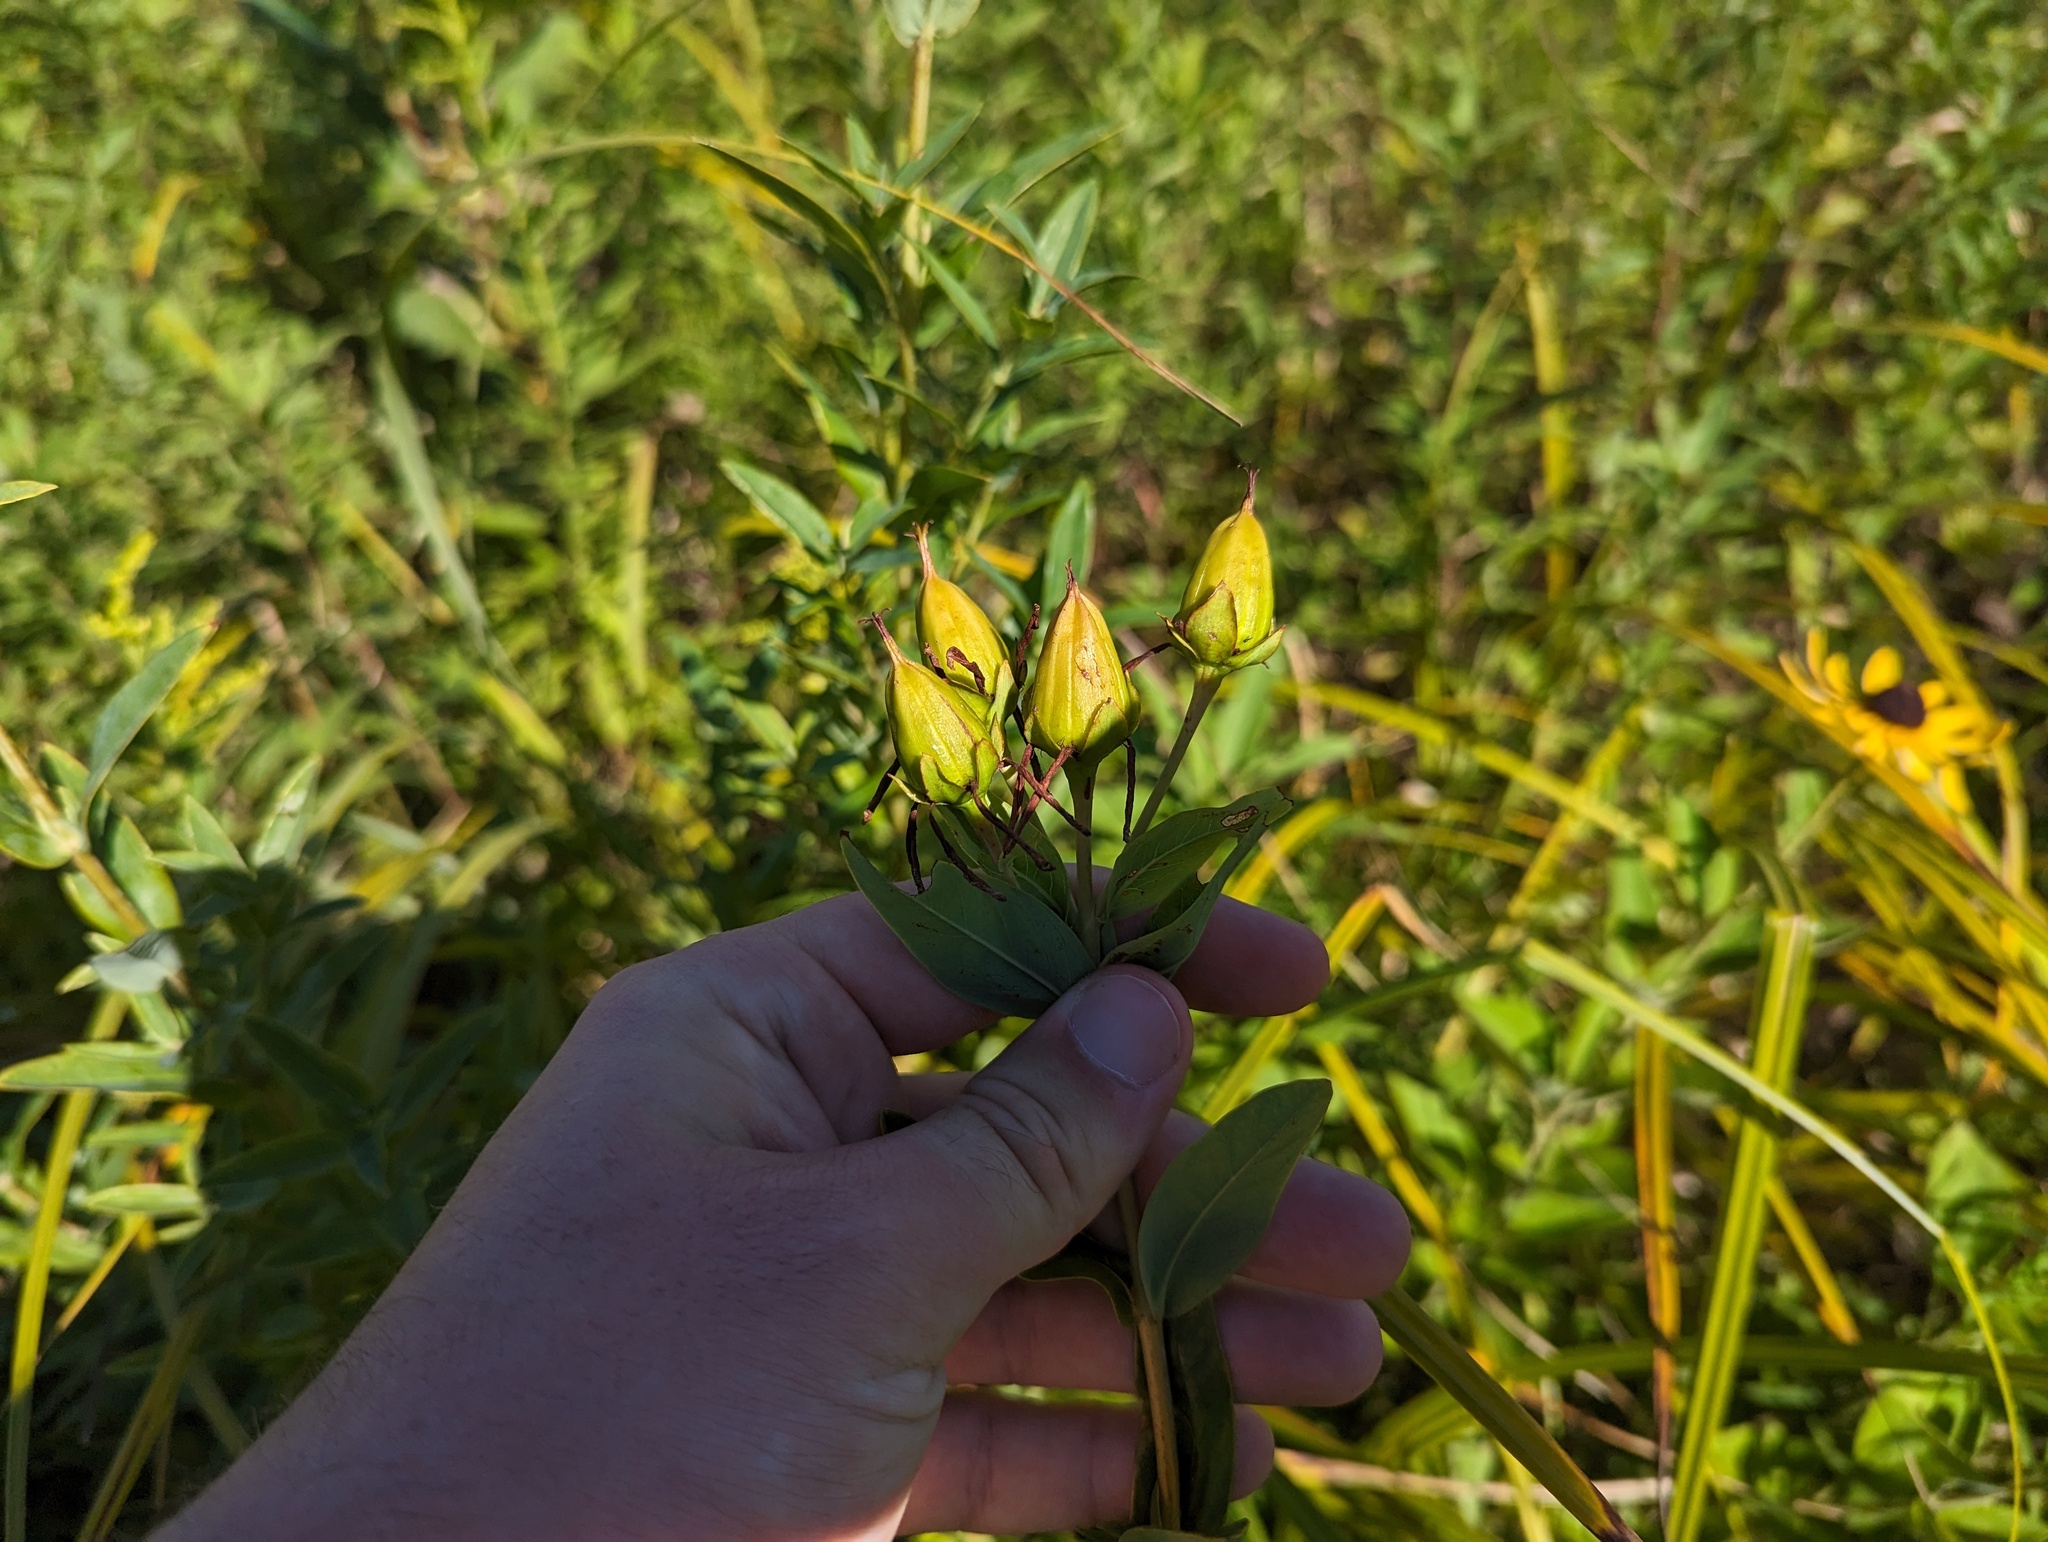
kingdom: Plantae
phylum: Tracheophyta
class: Magnoliopsida
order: Malpighiales
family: Hypericaceae
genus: Hypericum
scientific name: Hypericum ascyron
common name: Giant st. john's-wort
